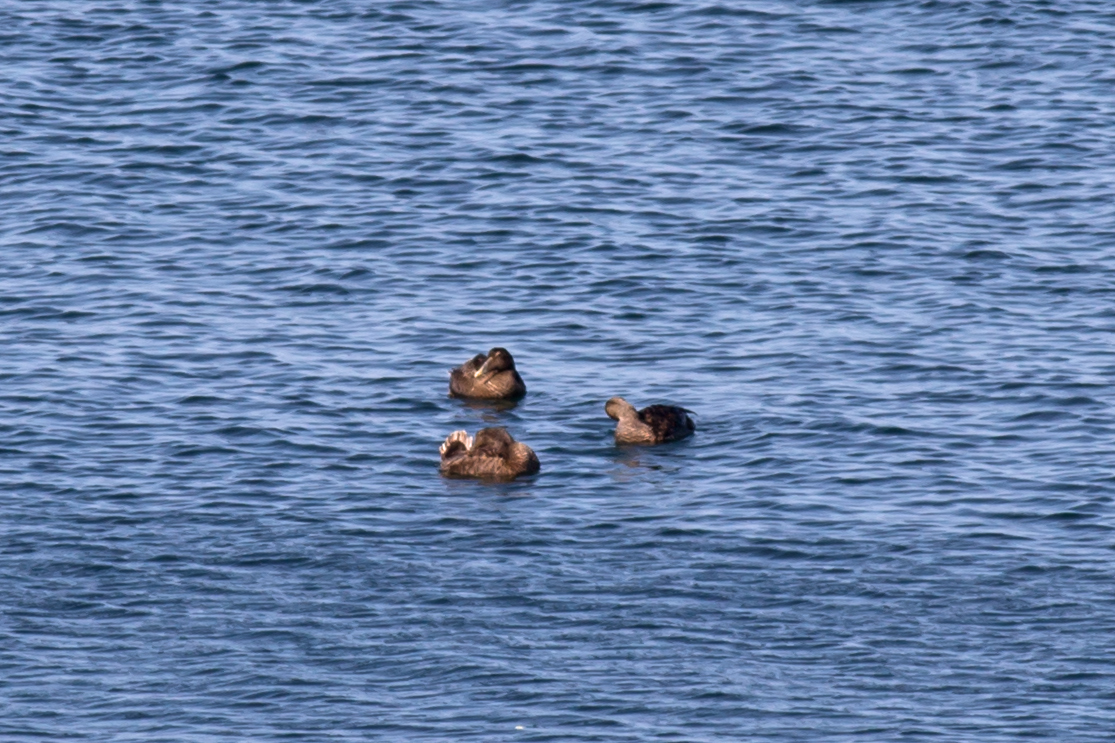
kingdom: Animalia
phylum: Chordata
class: Aves
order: Anseriformes
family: Anatidae
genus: Somateria
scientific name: Somateria mollissima
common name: Common eider
